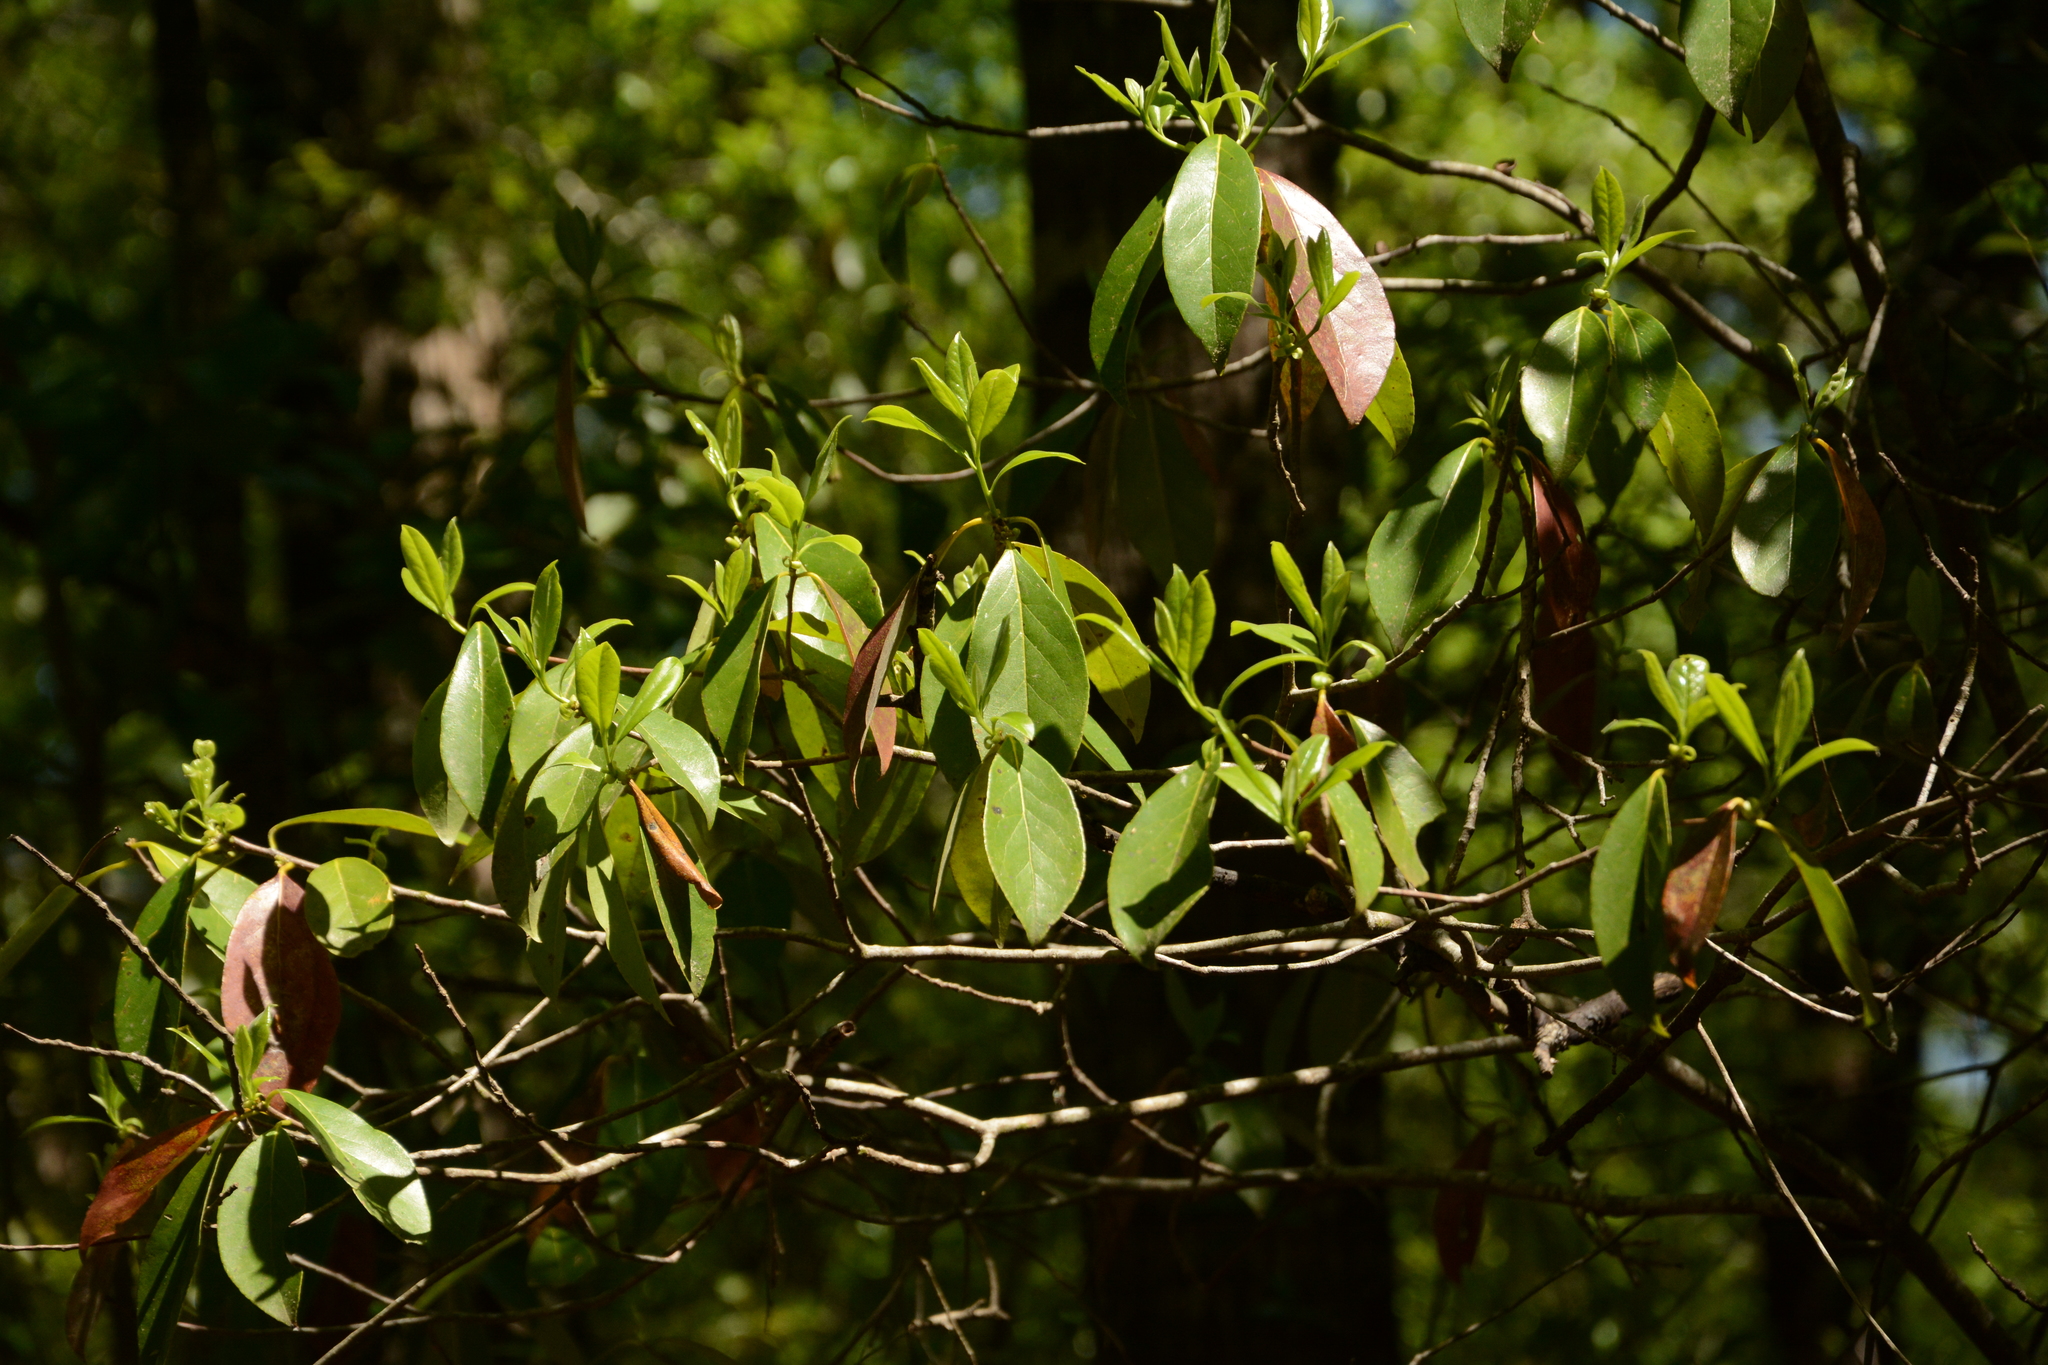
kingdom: Plantae
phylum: Tracheophyta
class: Magnoliopsida
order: Ericales
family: Symplocaceae
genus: Symplocos
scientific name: Symplocos tinctoria
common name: Horse-sugar
